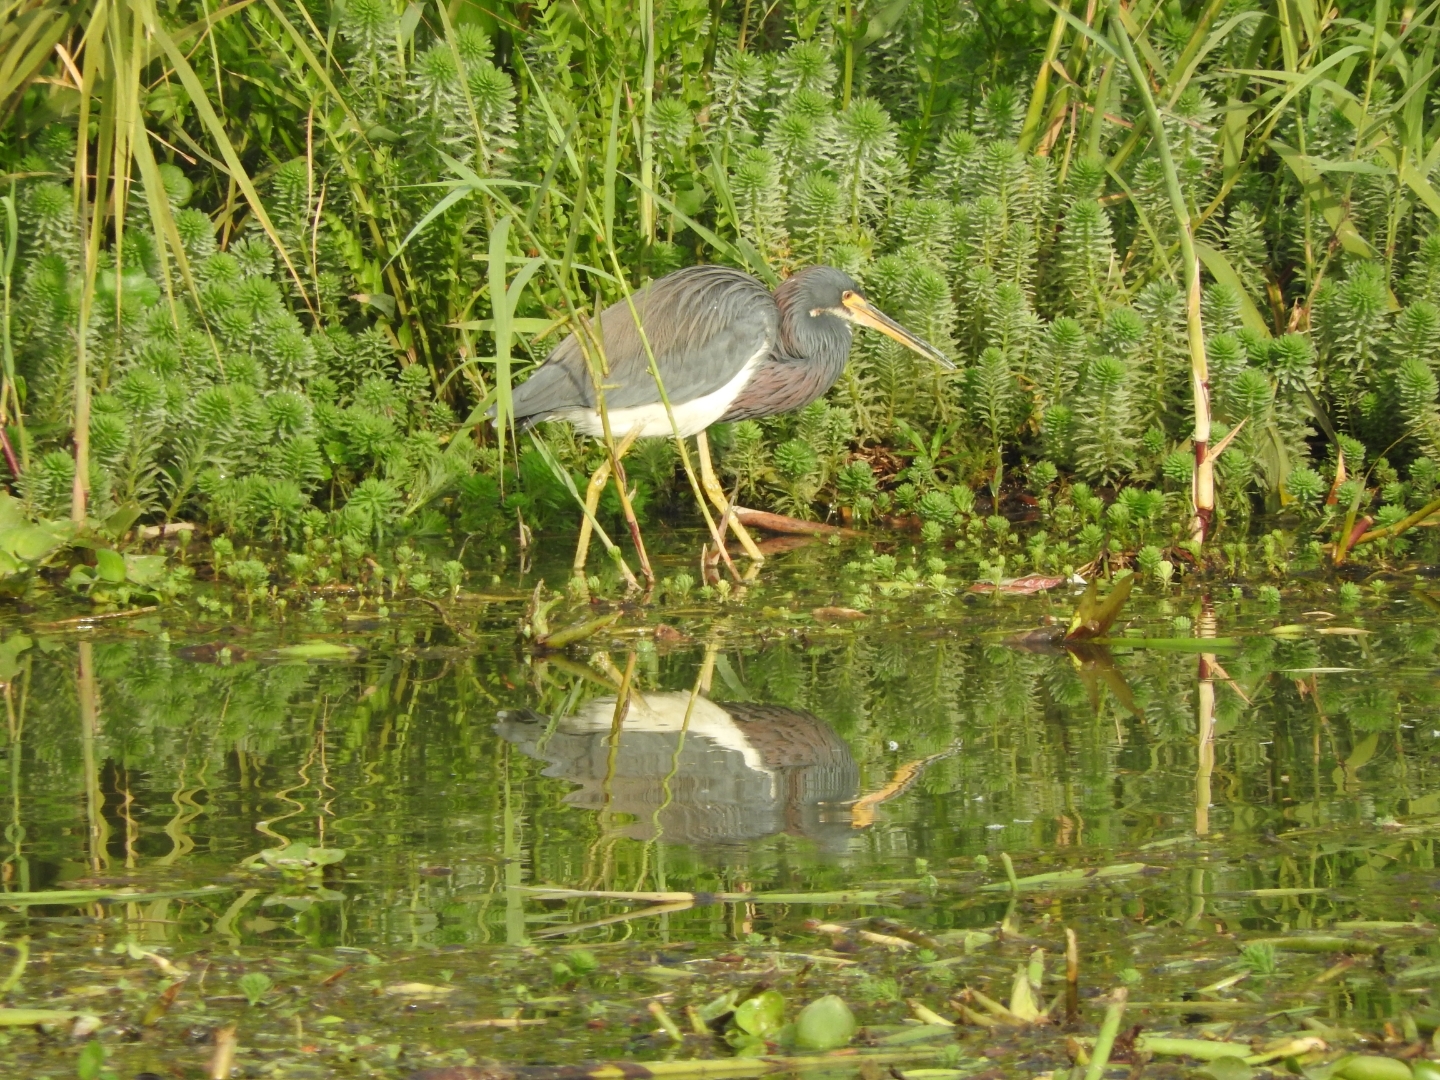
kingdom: Animalia
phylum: Chordata
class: Aves
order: Pelecaniformes
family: Ardeidae
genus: Egretta
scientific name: Egretta tricolor
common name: Tricolored heron
